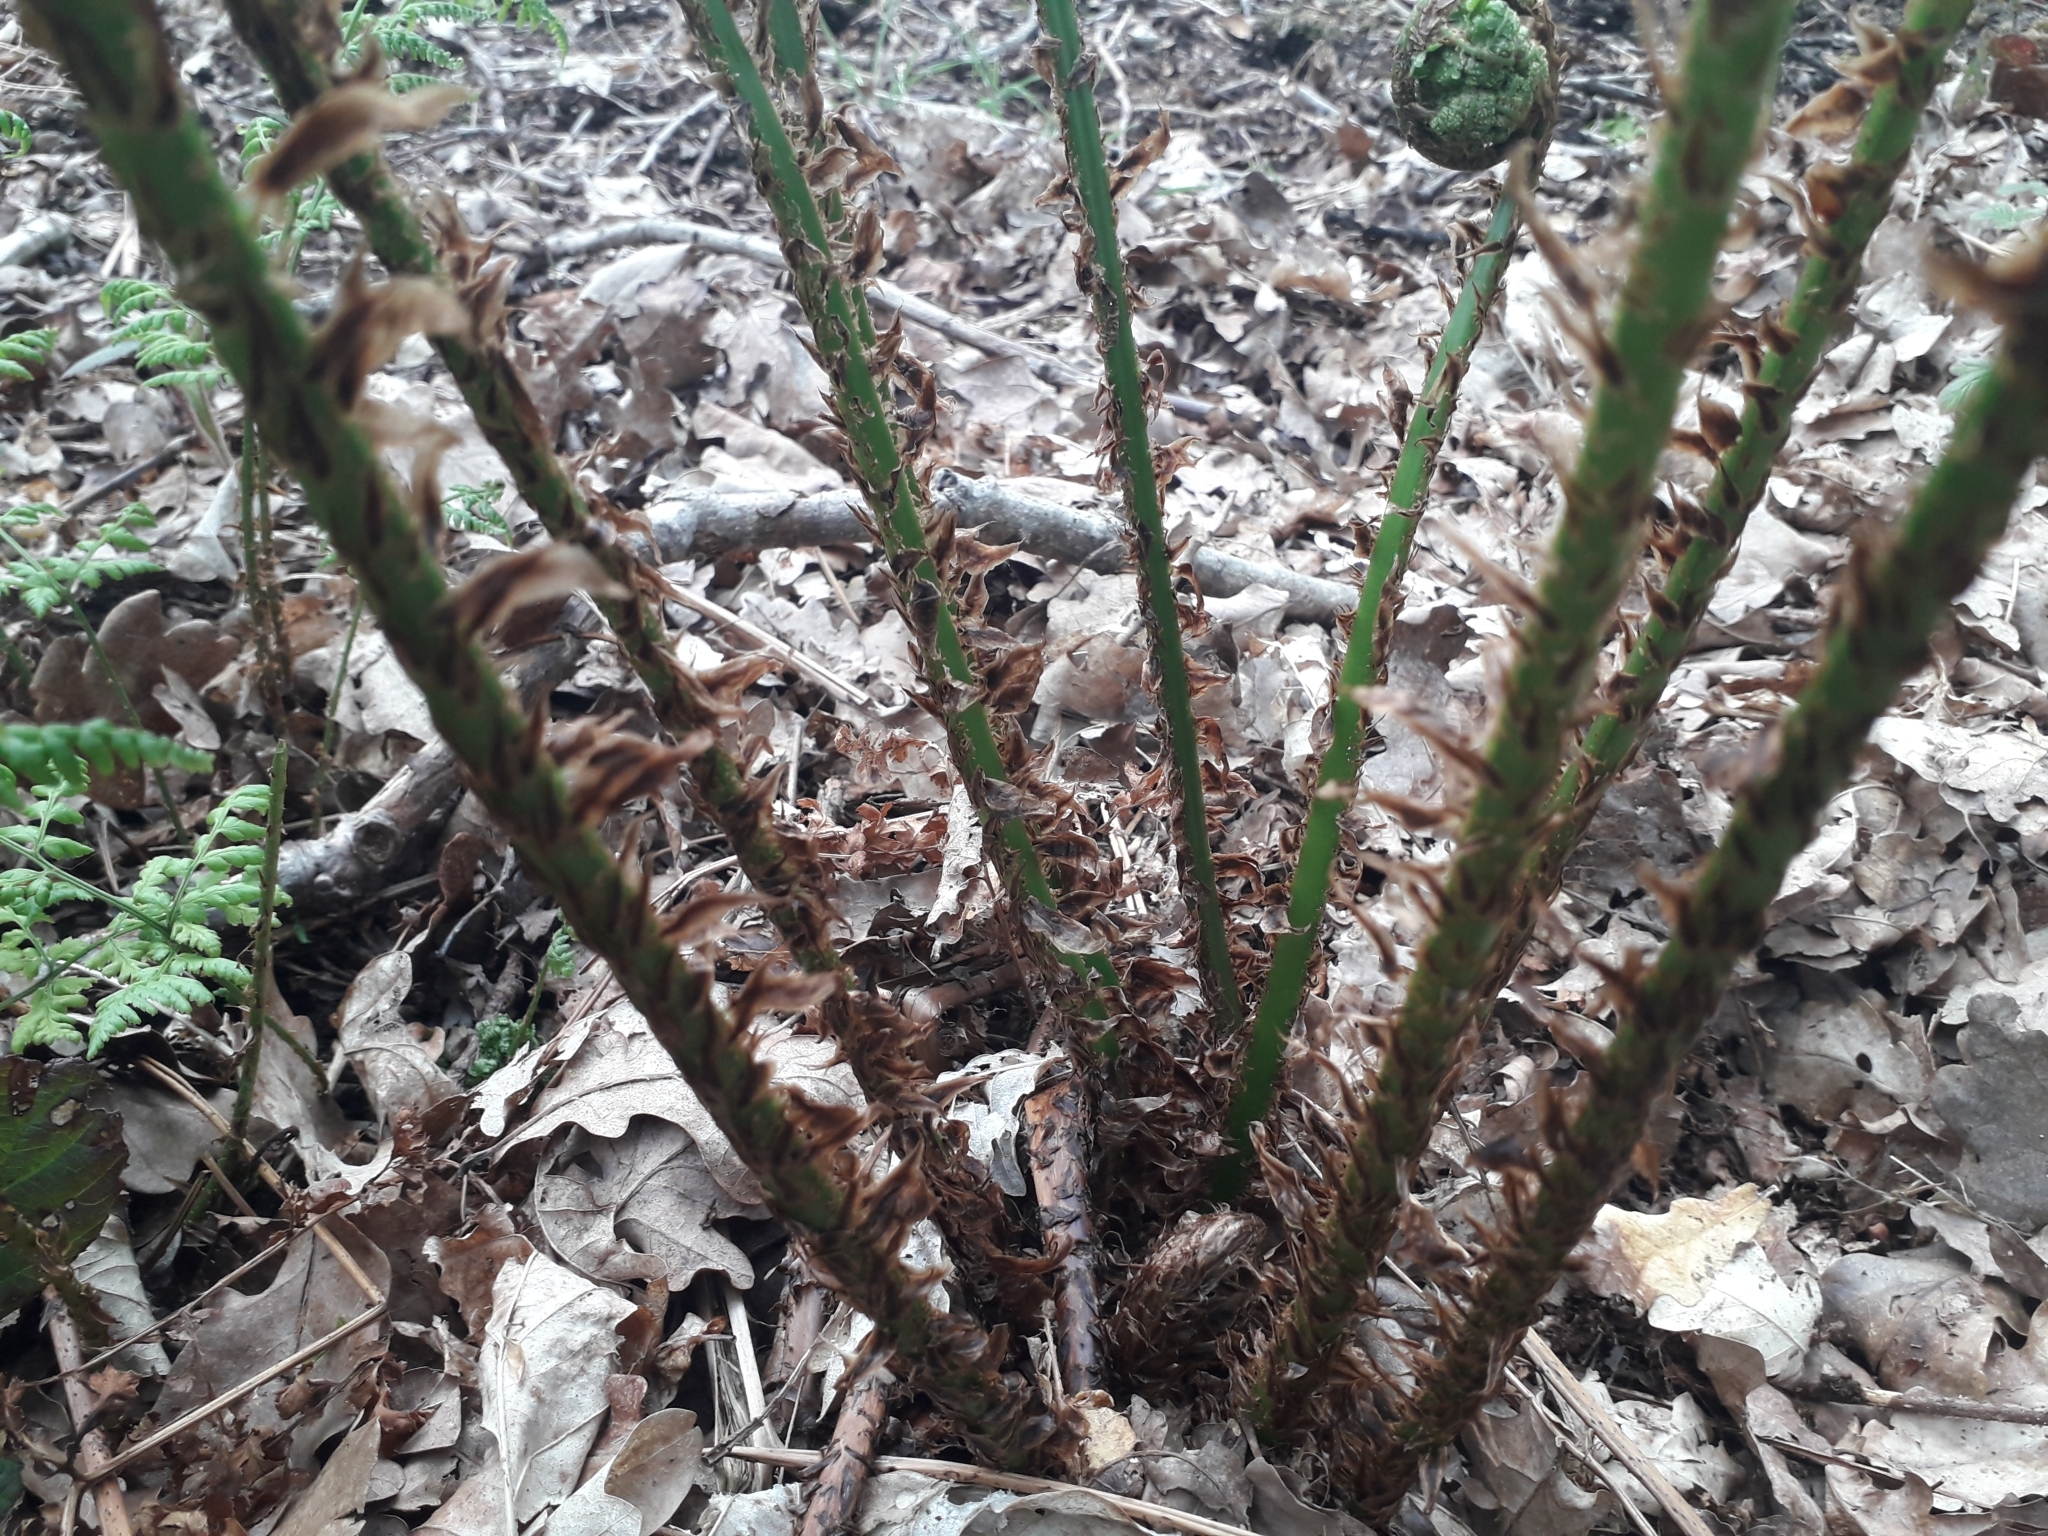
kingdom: Plantae
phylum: Tracheophyta
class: Polypodiopsida
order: Polypodiales
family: Dryopteridaceae
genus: Dryopteris
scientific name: Dryopteris dilatata
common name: Broad buckler-fern
